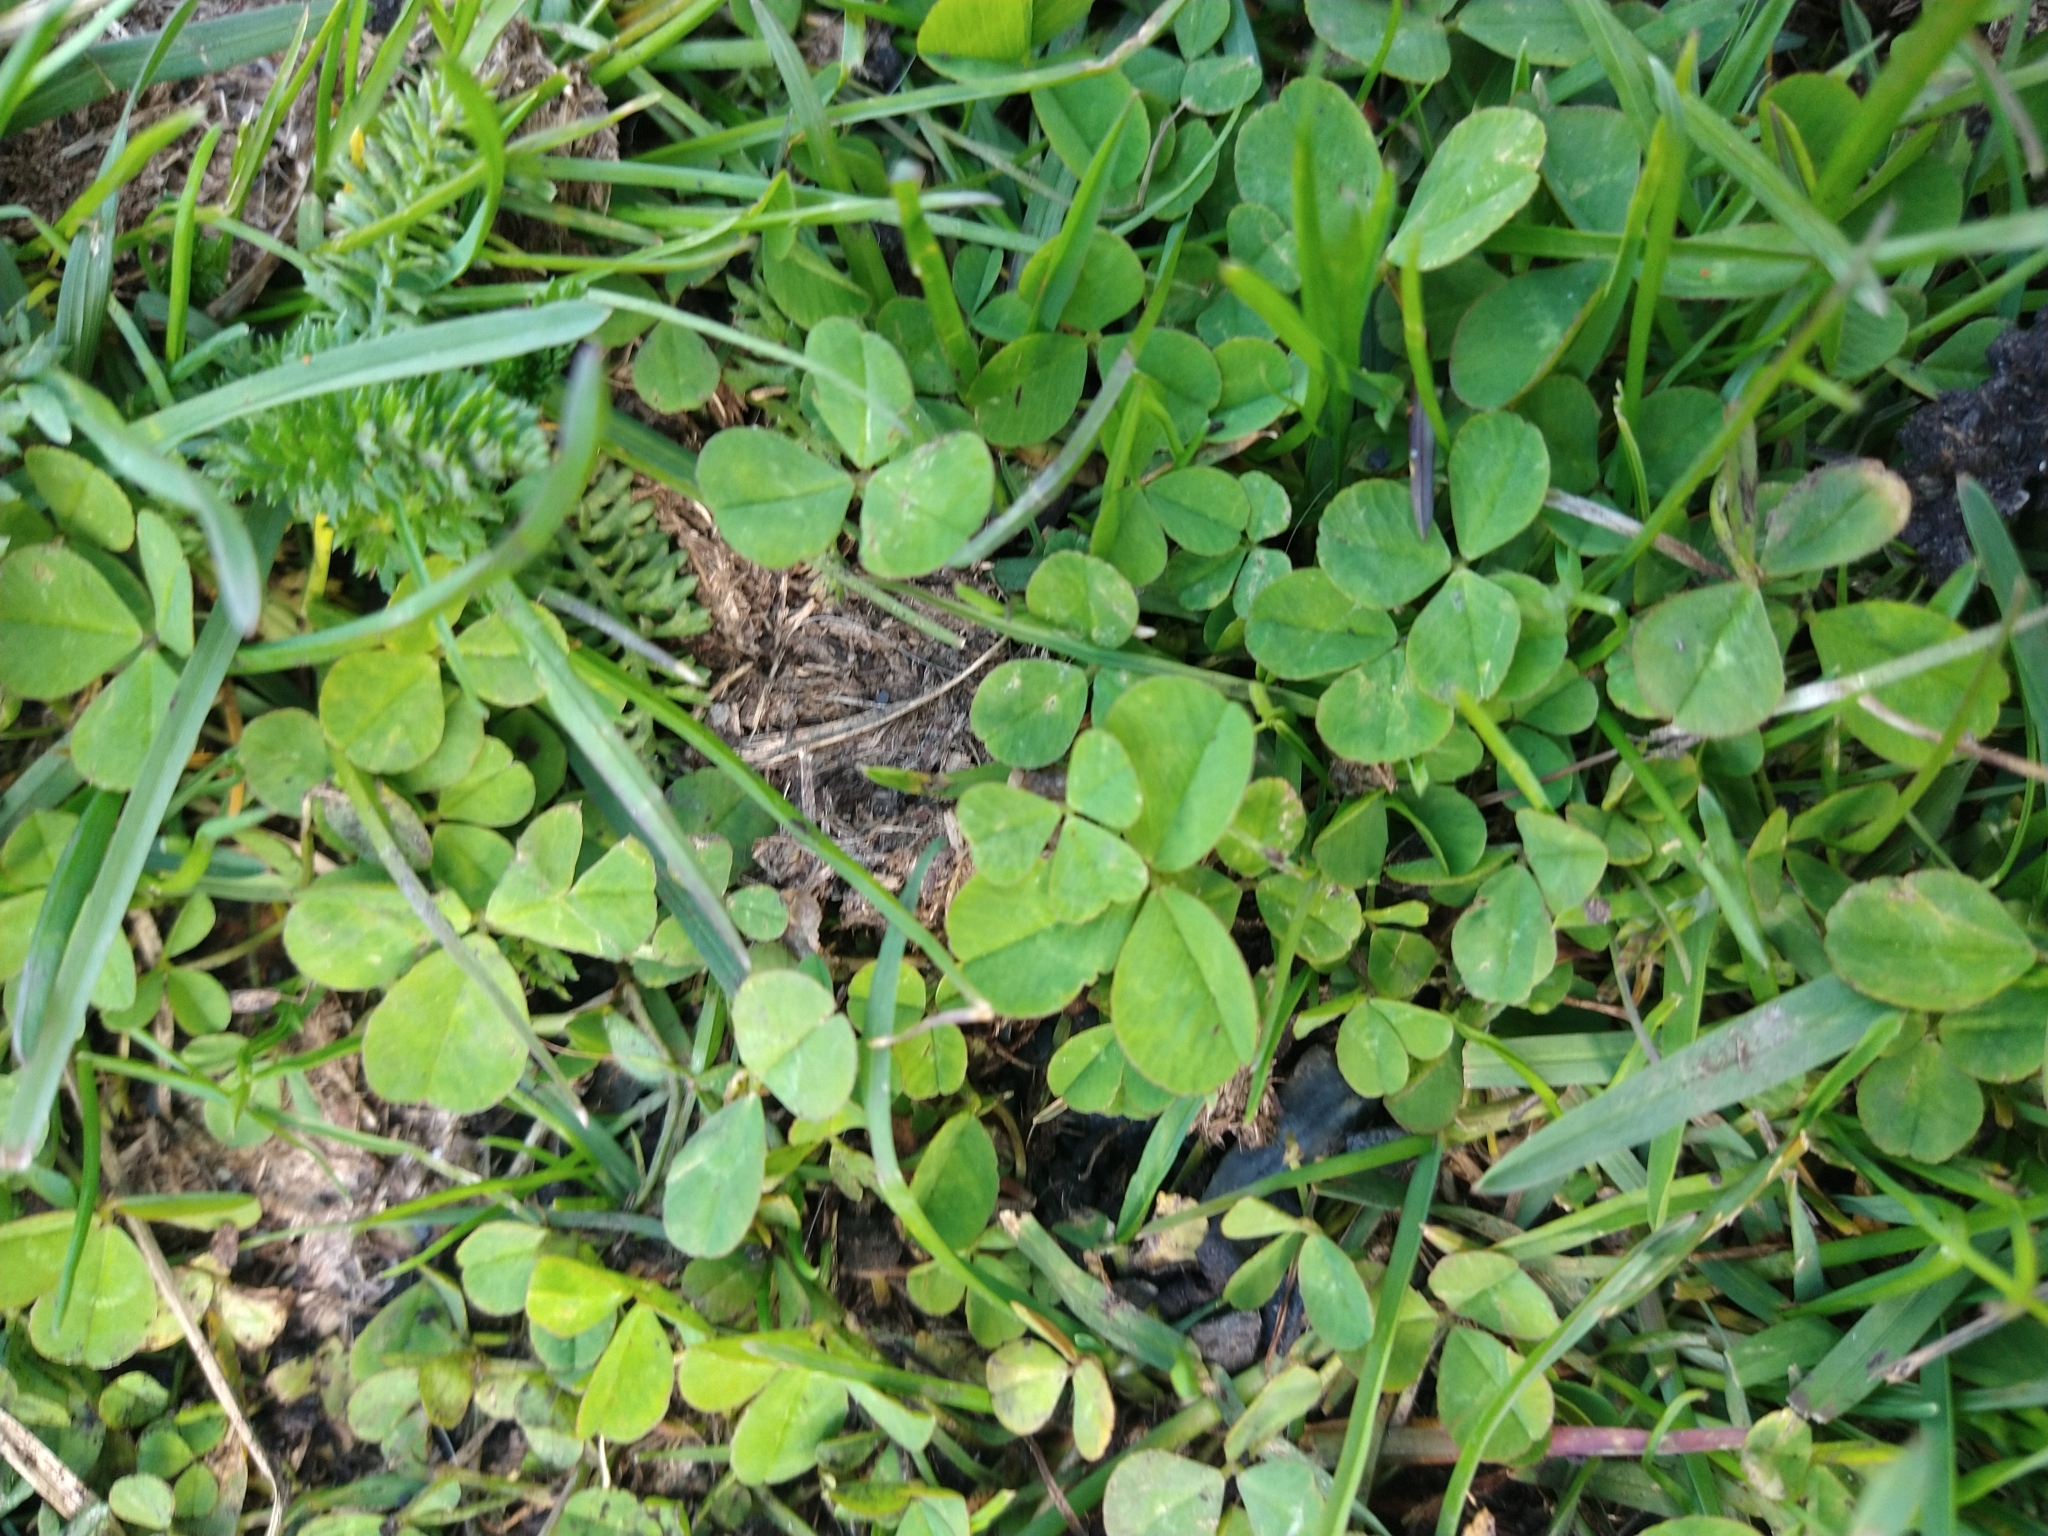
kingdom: Plantae
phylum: Tracheophyta
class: Magnoliopsida
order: Fabales
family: Fabaceae
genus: Trifolium
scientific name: Trifolium repens
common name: White clover
